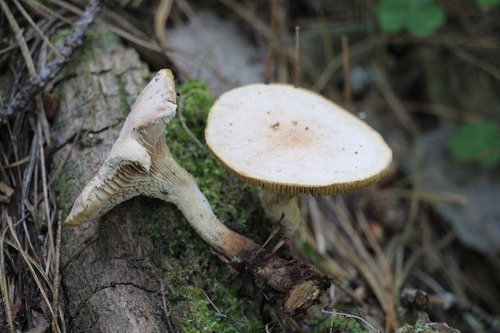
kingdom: Fungi
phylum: Basidiomycota
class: Agaricomycetes
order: Gloeophyllales
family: Gloeophyllaceae
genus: Neolentinus
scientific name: Neolentinus cyathiformis
